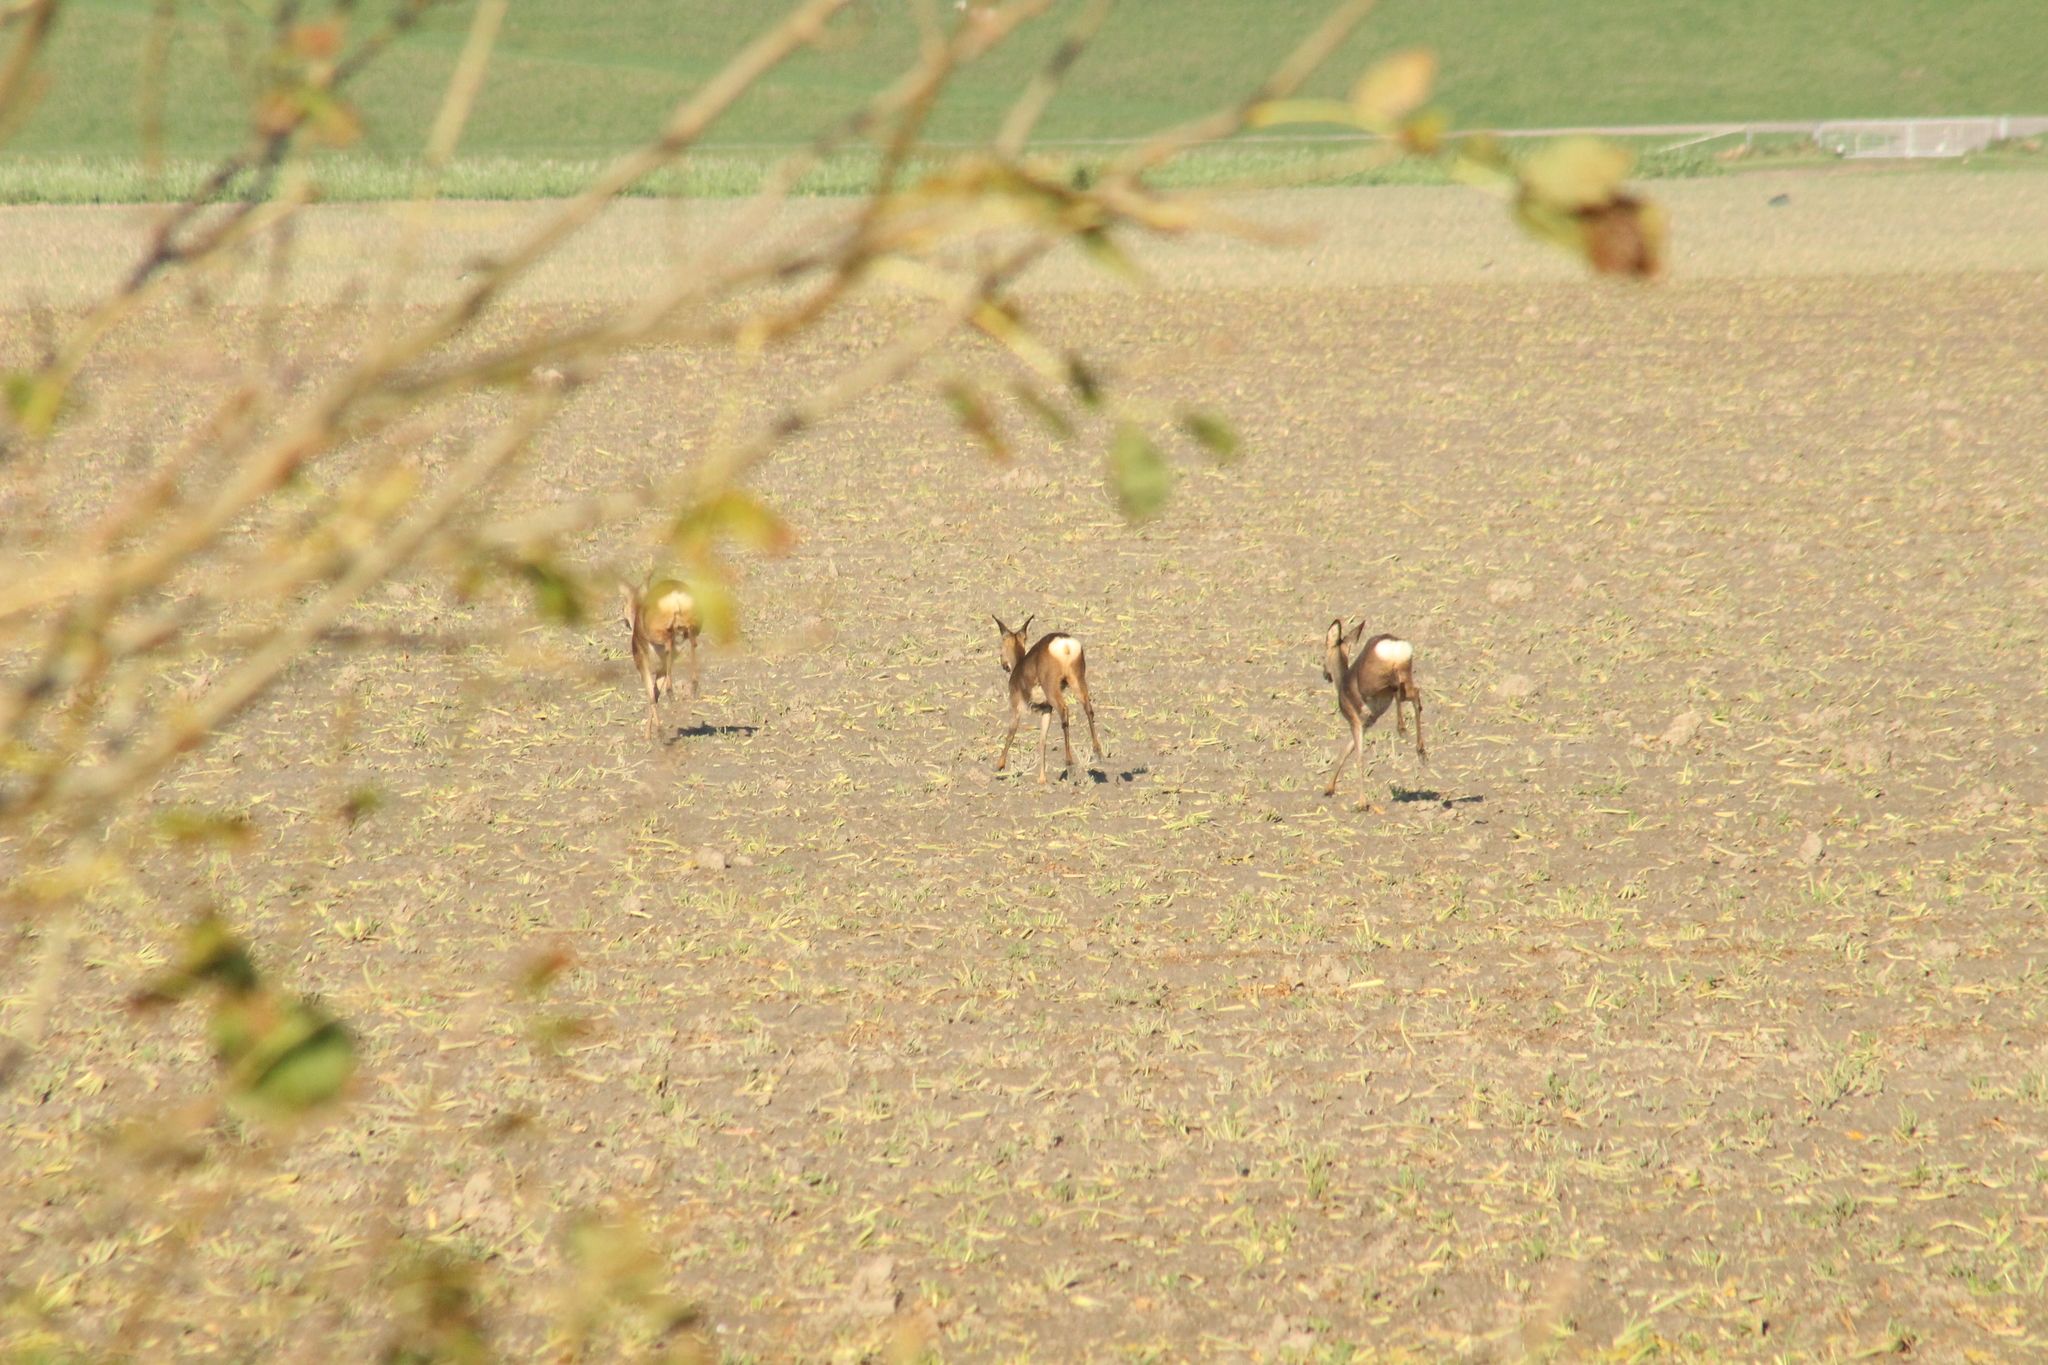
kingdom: Animalia
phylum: Chordata
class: Mammalia
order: Artiodactyla
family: Cervidae
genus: Capreolus
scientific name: Capreolus capreolus
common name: Western roe deer
